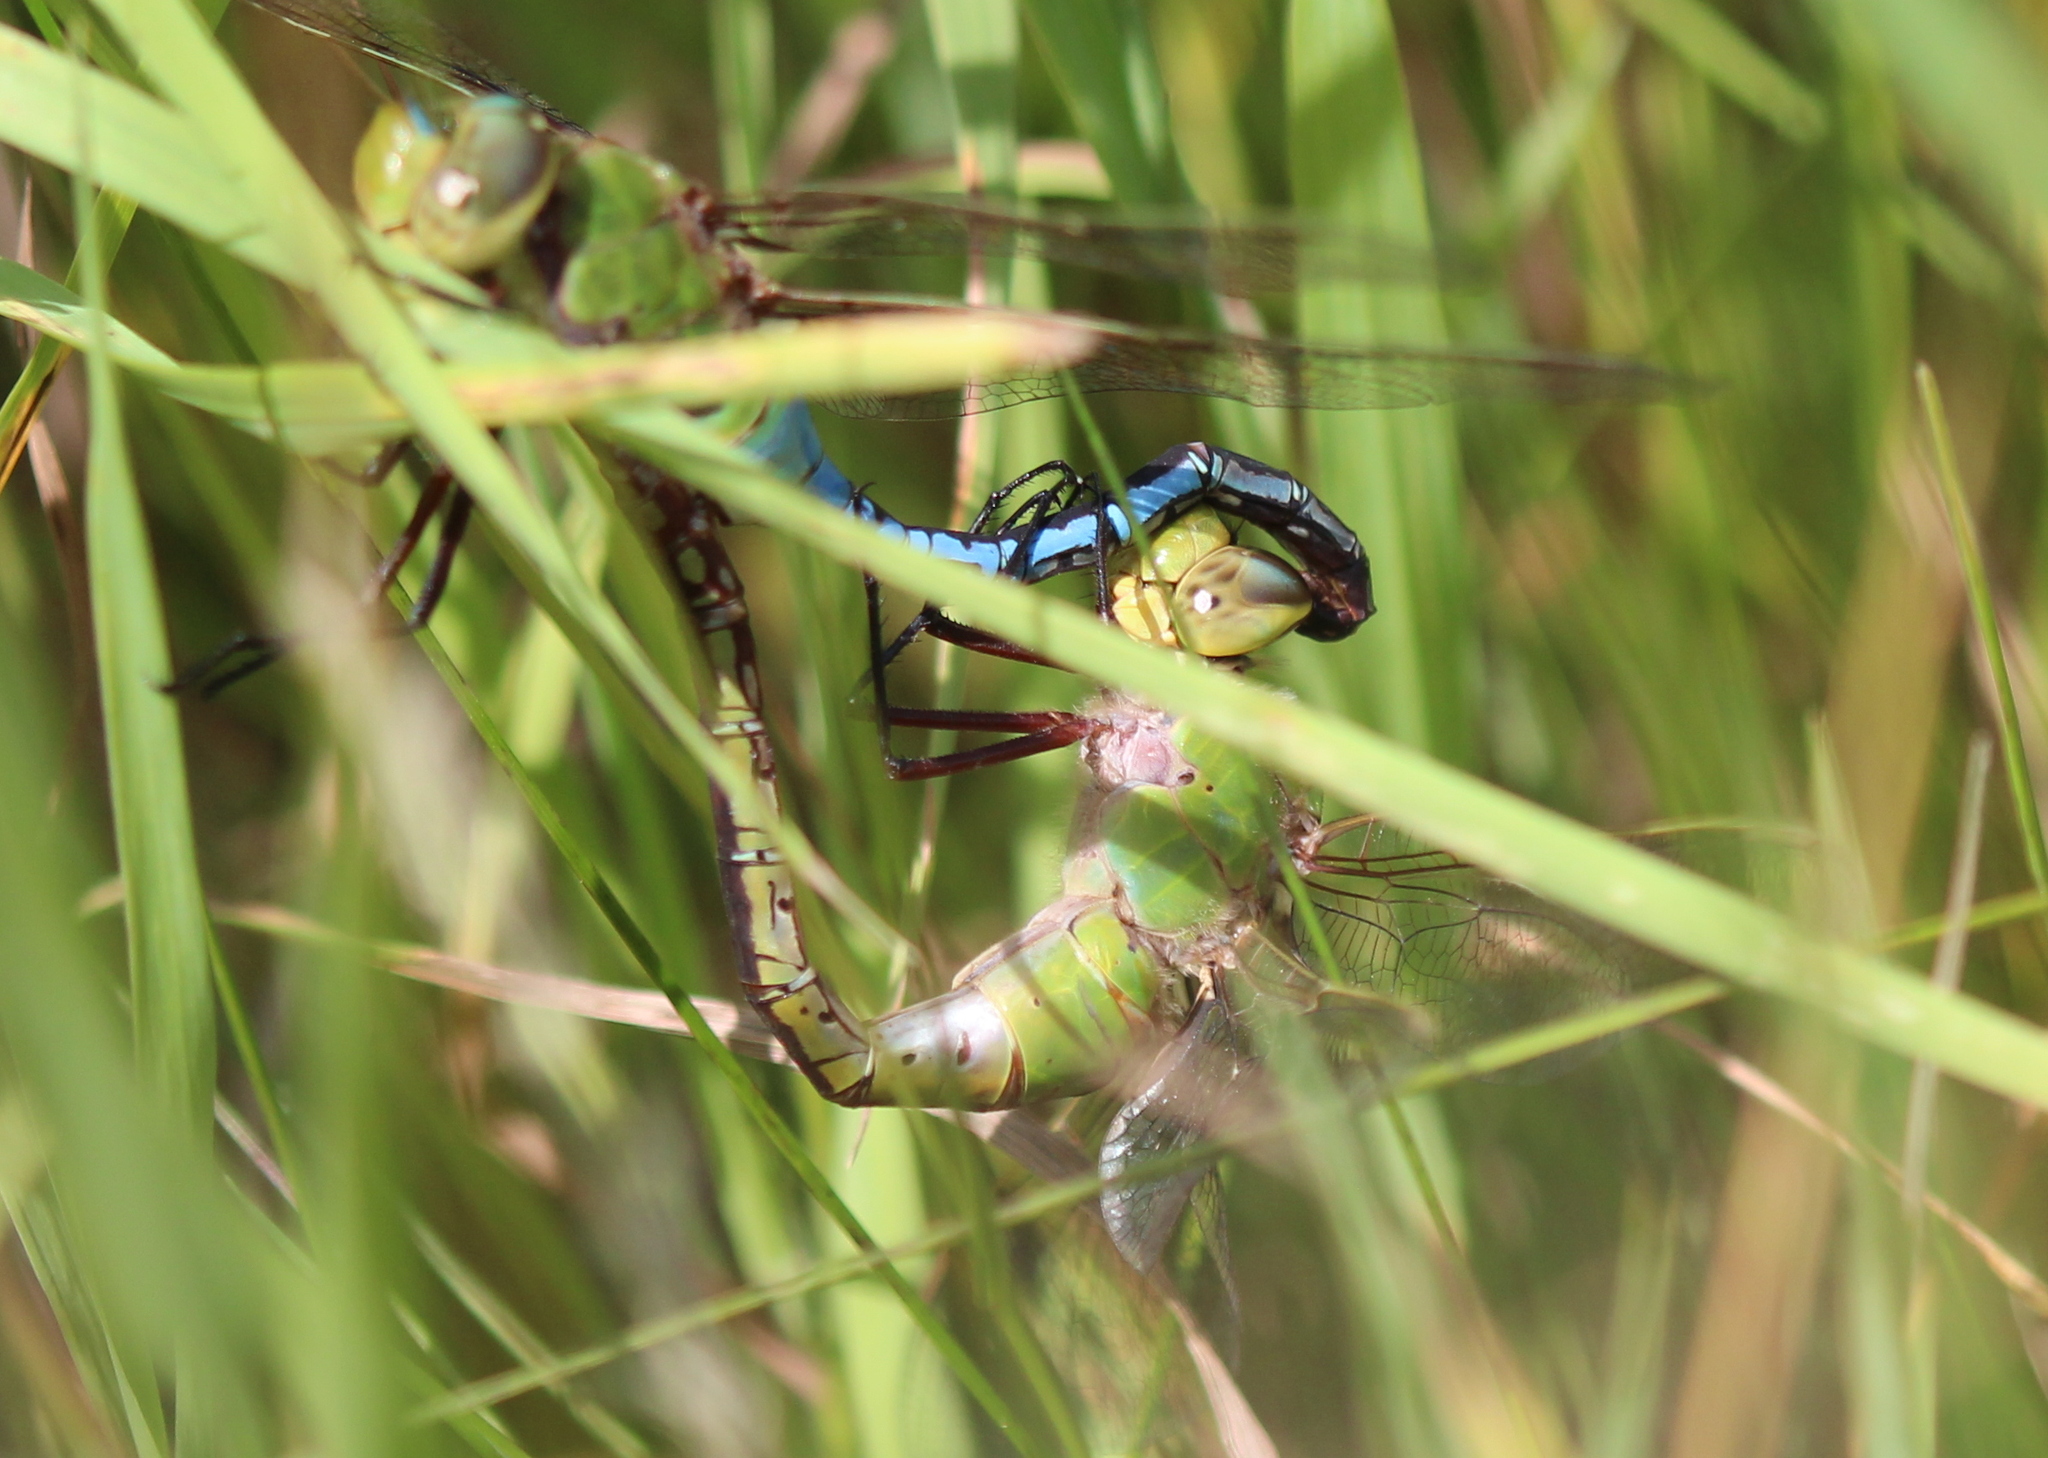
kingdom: Animalia
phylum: Arthropoda
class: Insecta
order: Odonata
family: Aeshnidae
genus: Anax
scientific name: Anax junius
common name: Common green darner
